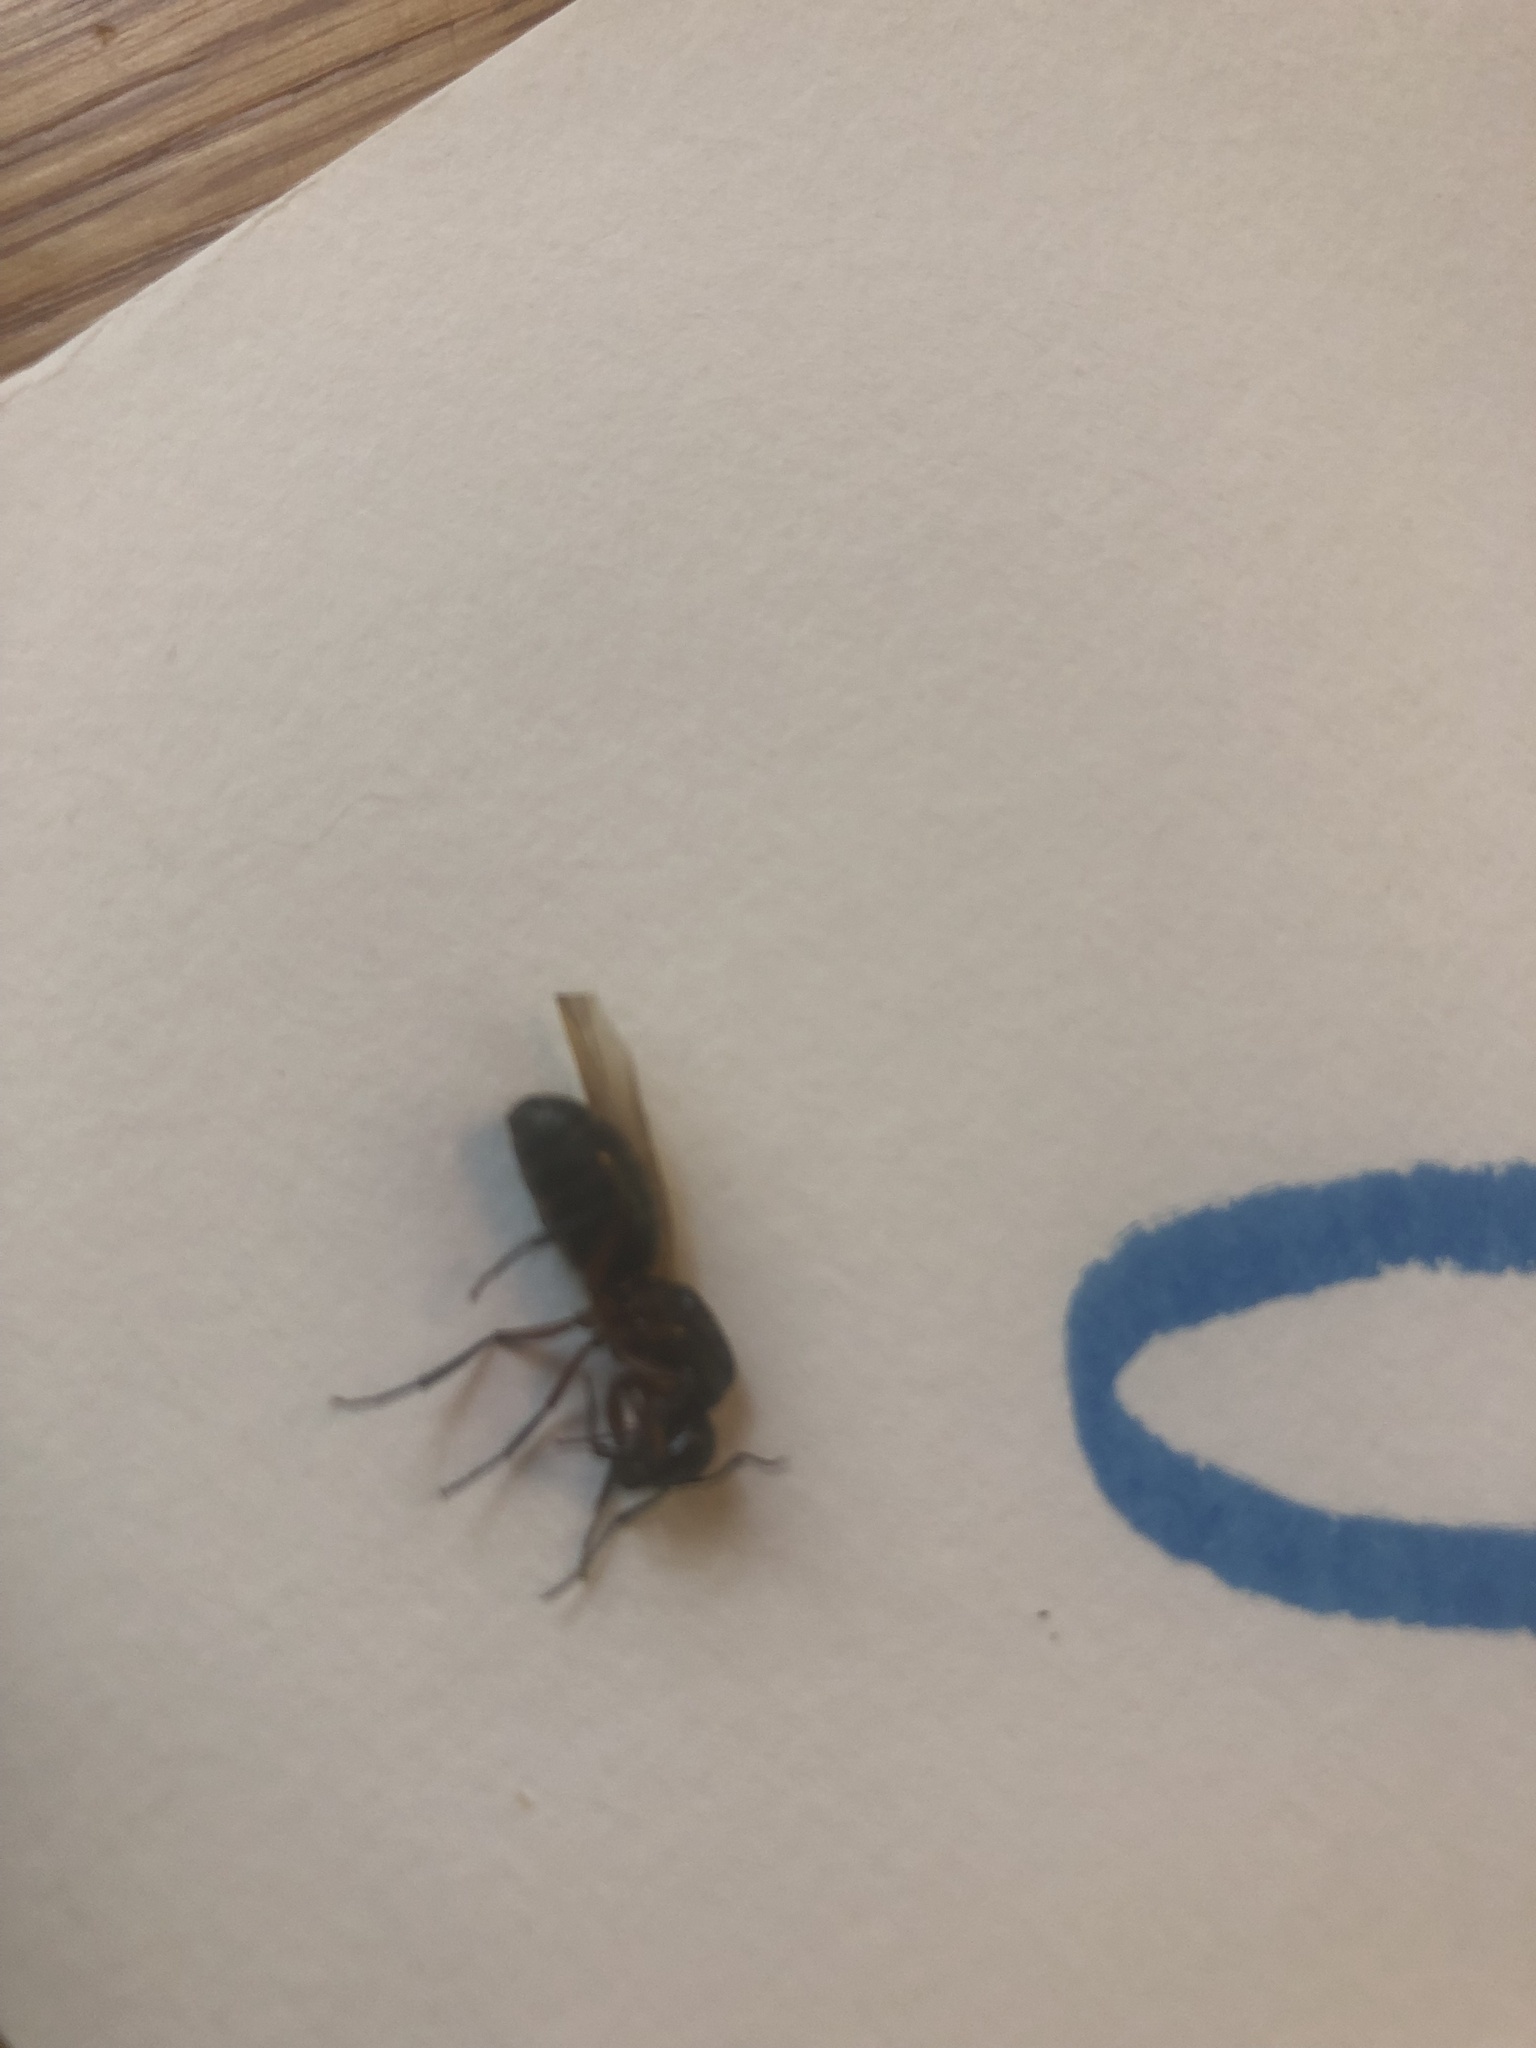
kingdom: Animalia
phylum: Arthropoda
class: Insecta
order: Hymenoptera
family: Formicidae
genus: Camponotus
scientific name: Camponotus chromaiodes
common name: Red carpenter ant
